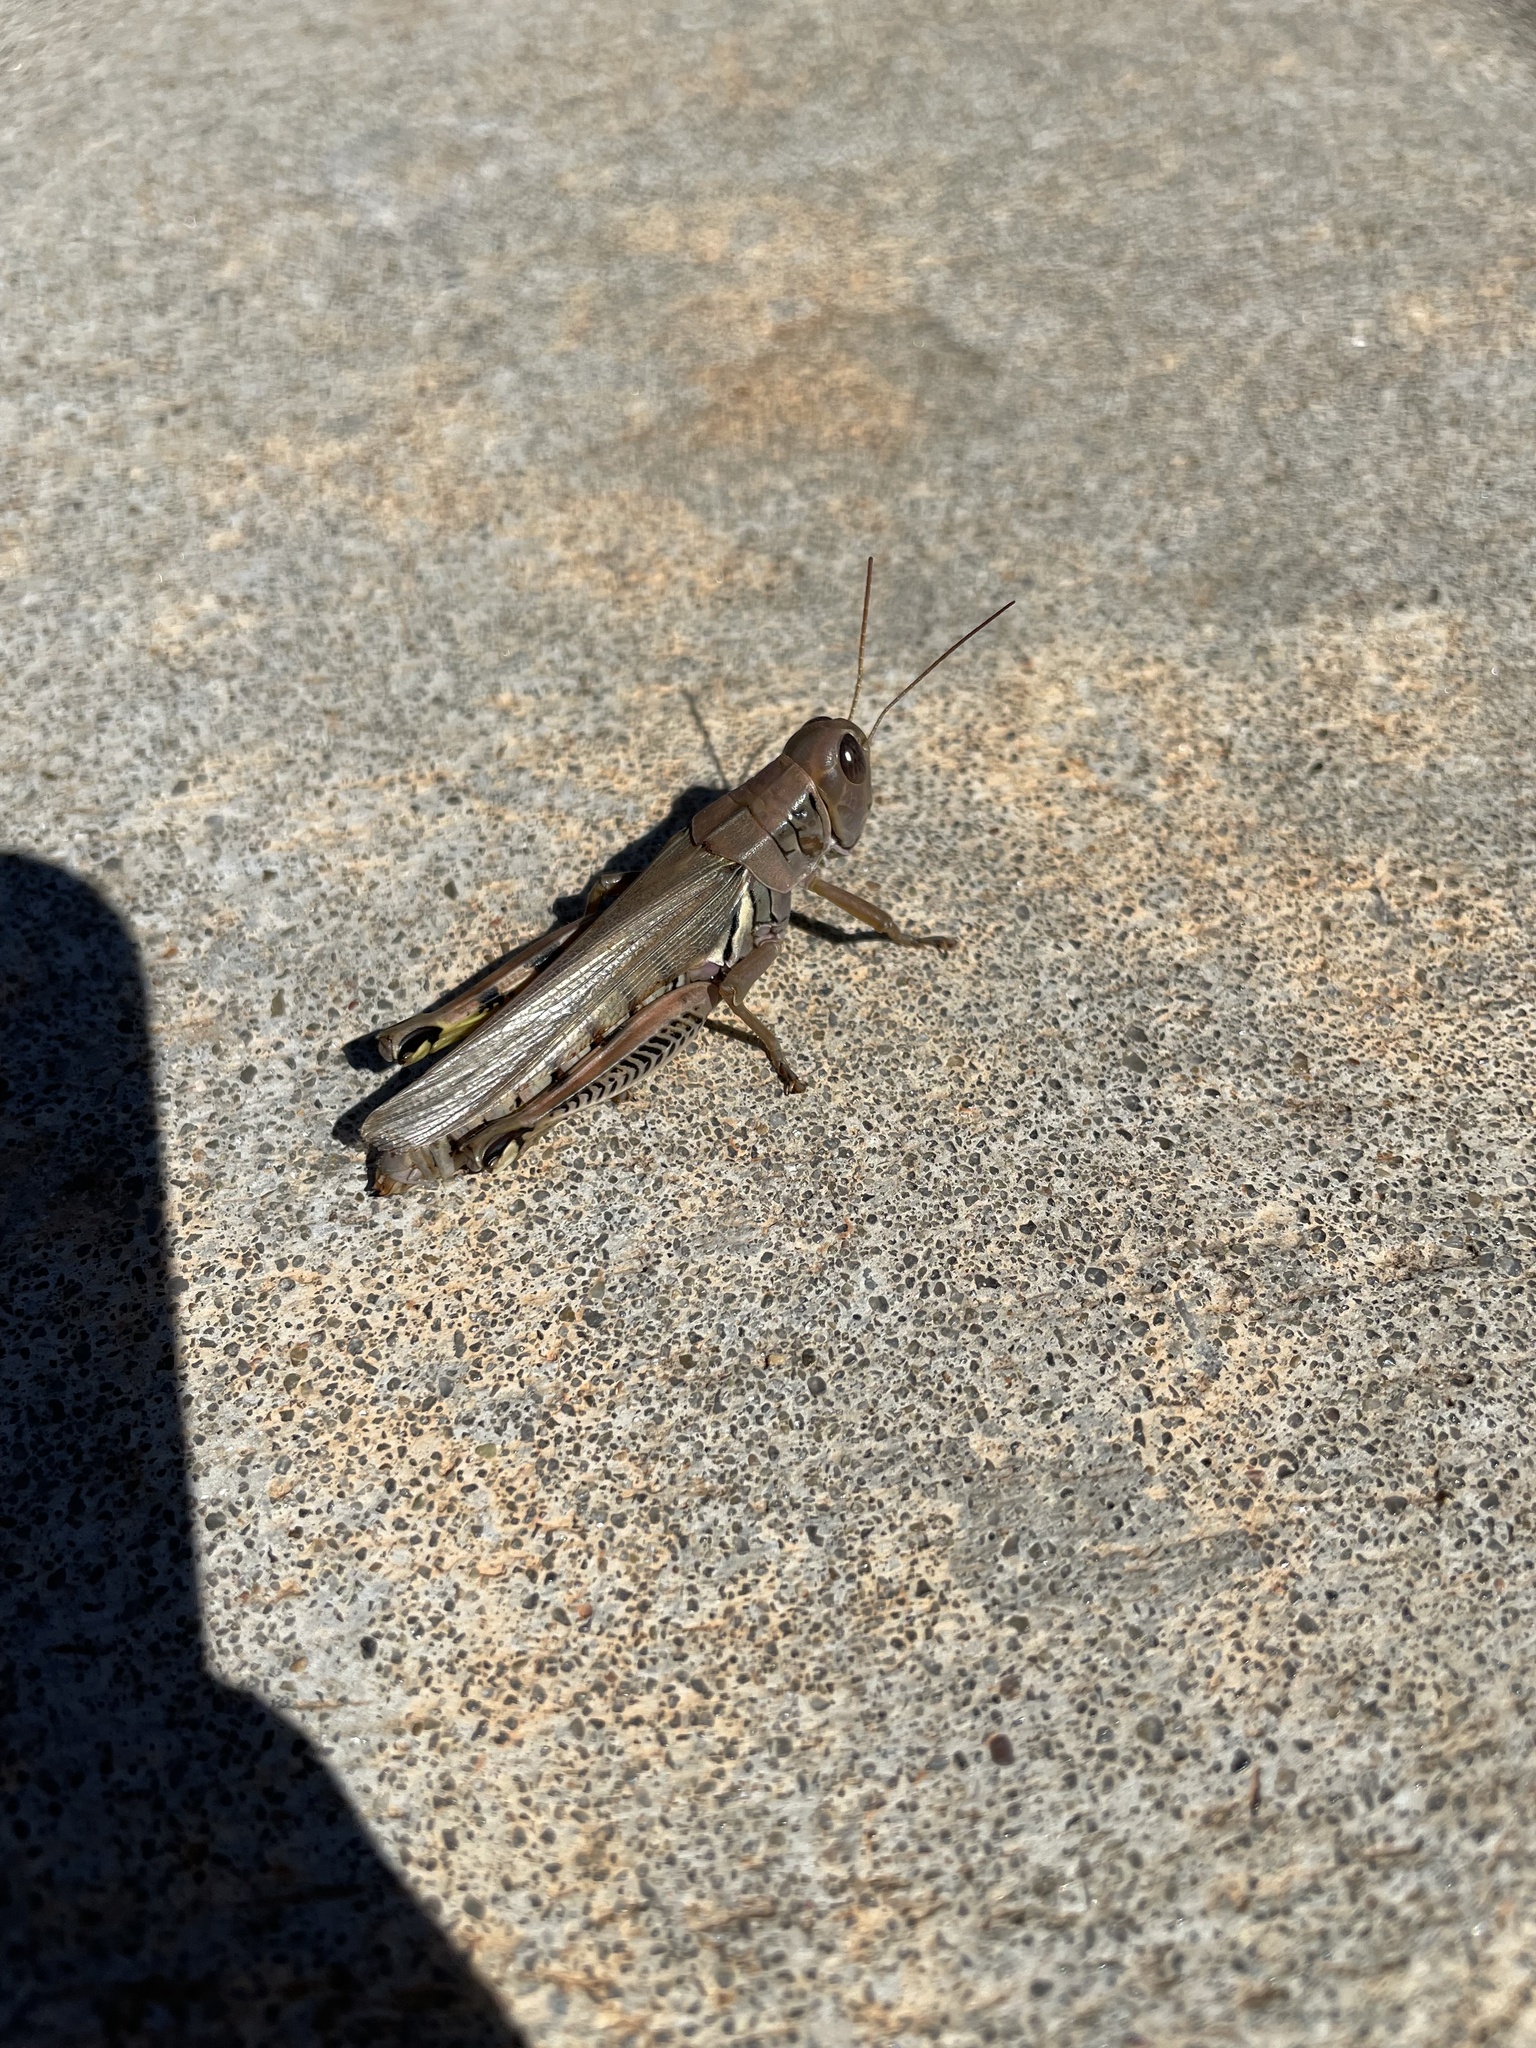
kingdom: Animalia
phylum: Arthropoda
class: Insecta
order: Orthoptera
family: Acrididae
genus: Melanoplus
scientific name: Melanoplus differentialis
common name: Differential grasshopper
